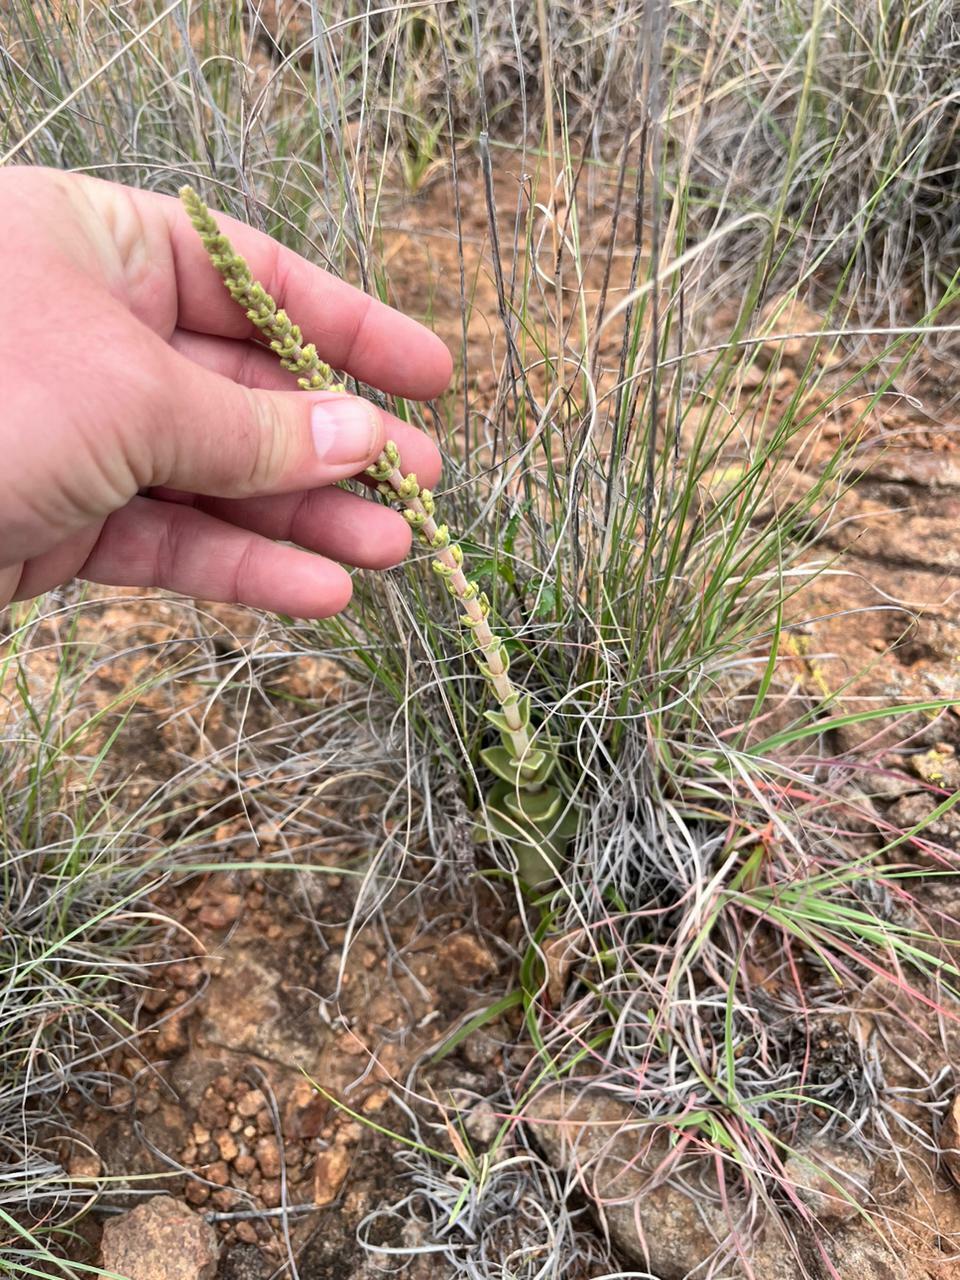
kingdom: Plantae
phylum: Tracheophyta
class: Magnoliopsida
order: Saxifragales
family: Crassulaceae
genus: Crassula
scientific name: Crassula capitella
